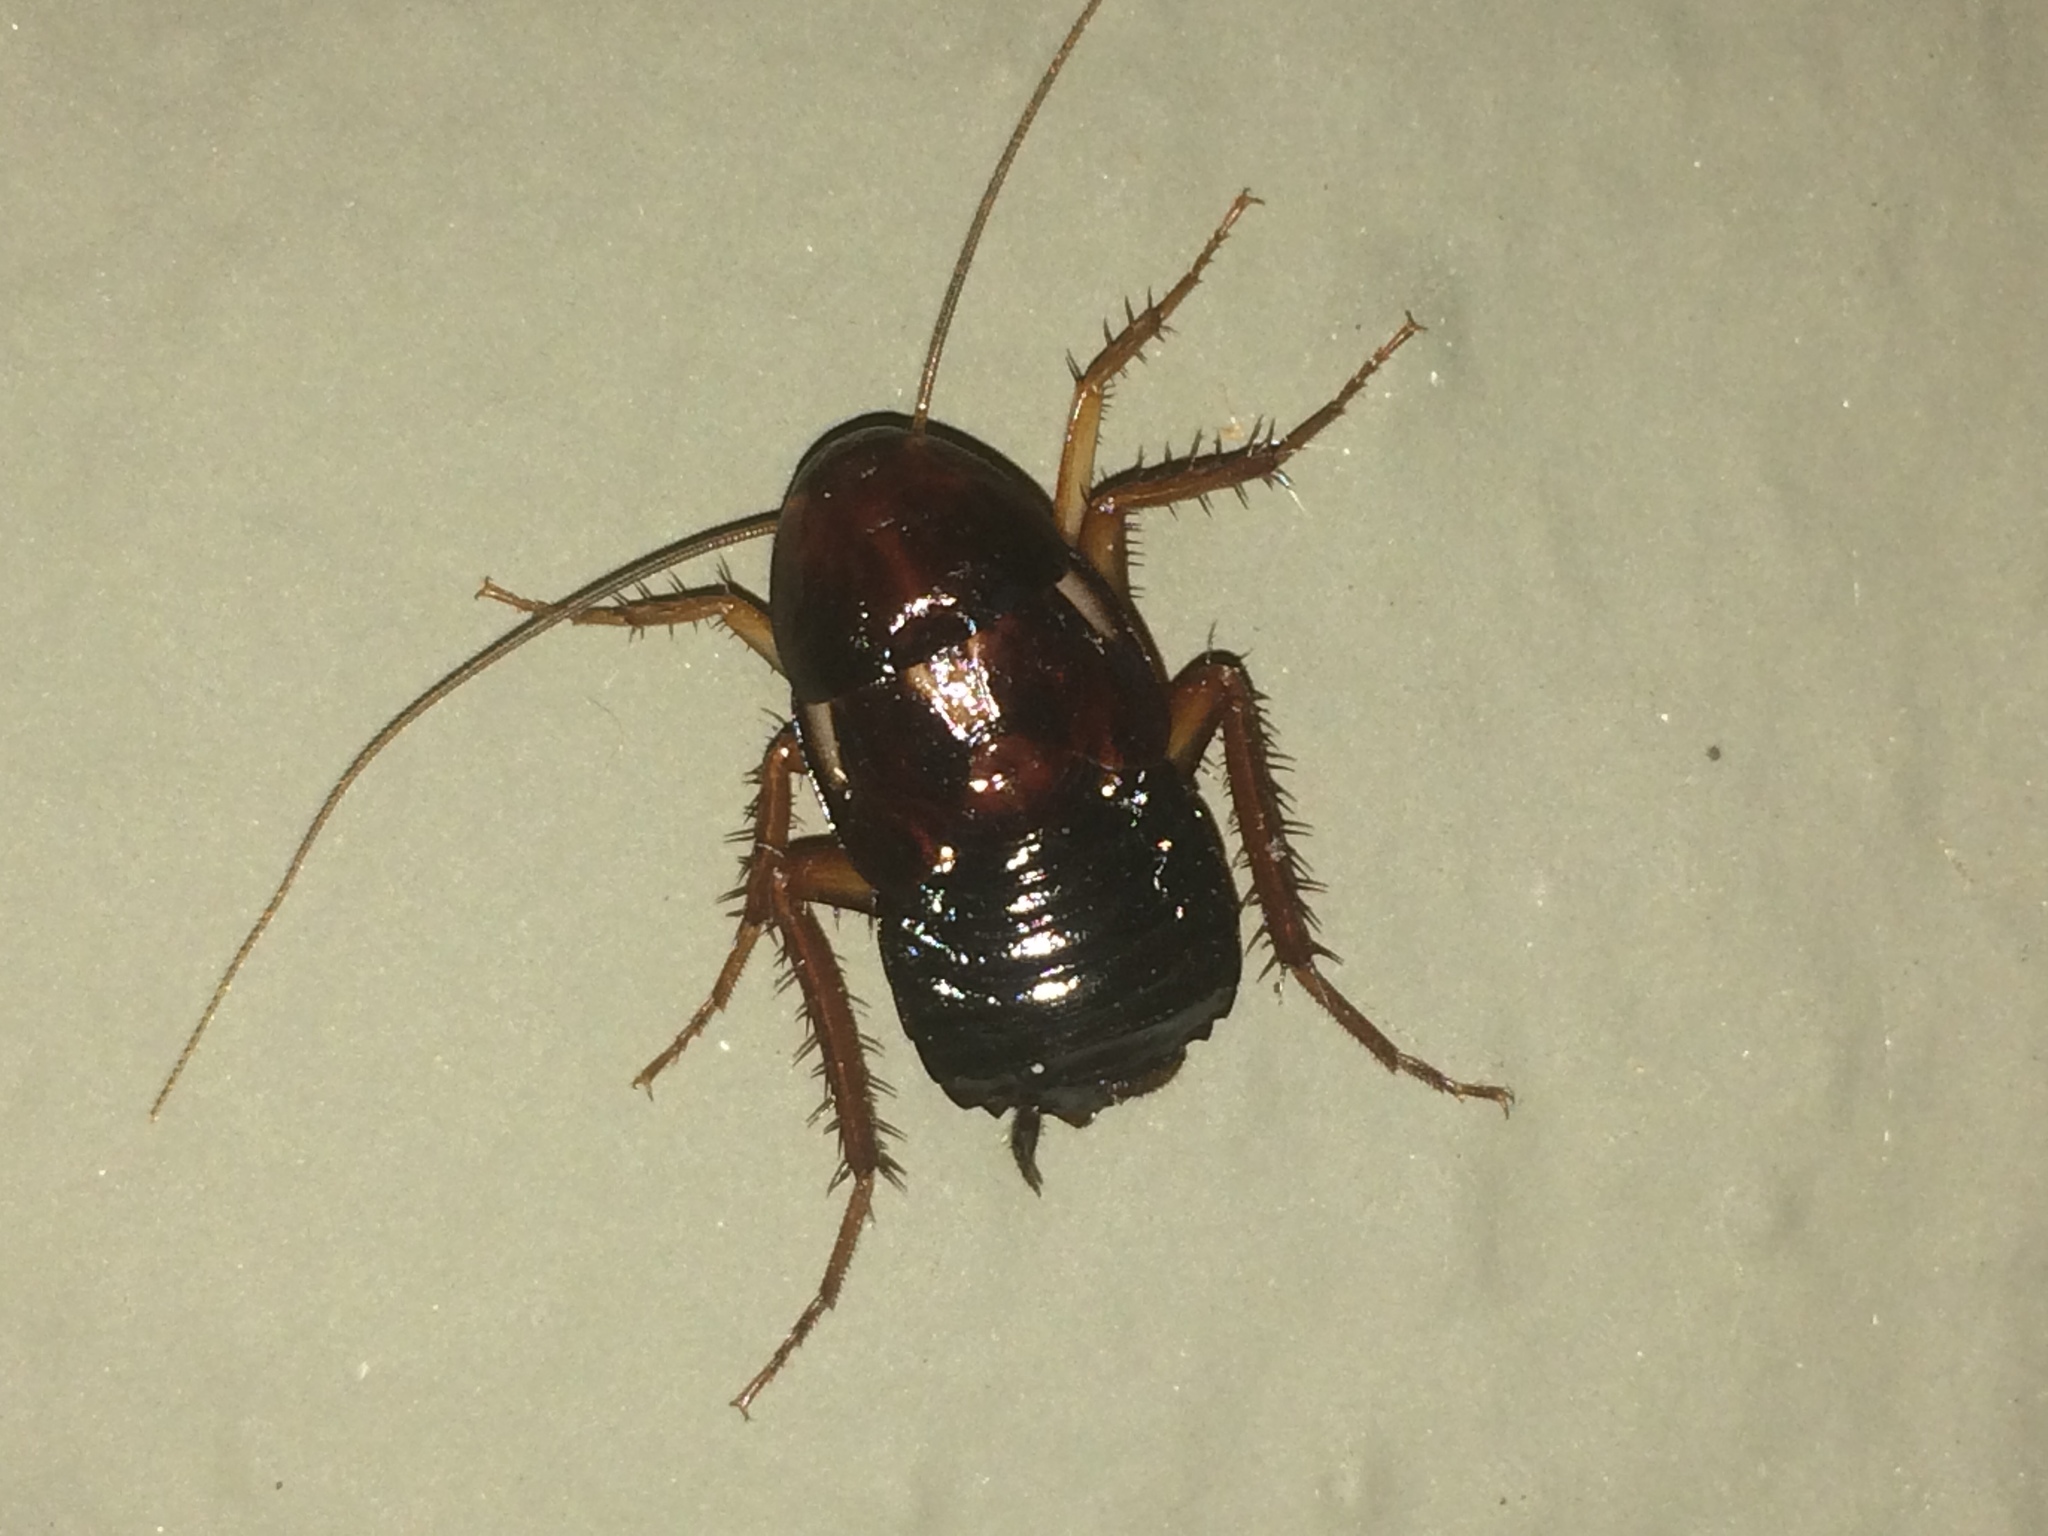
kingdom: Animalia
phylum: Arthropoda
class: Insecta
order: Blattodea
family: Blattidae
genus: Periplaneta
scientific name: Periplaneta lateralis
